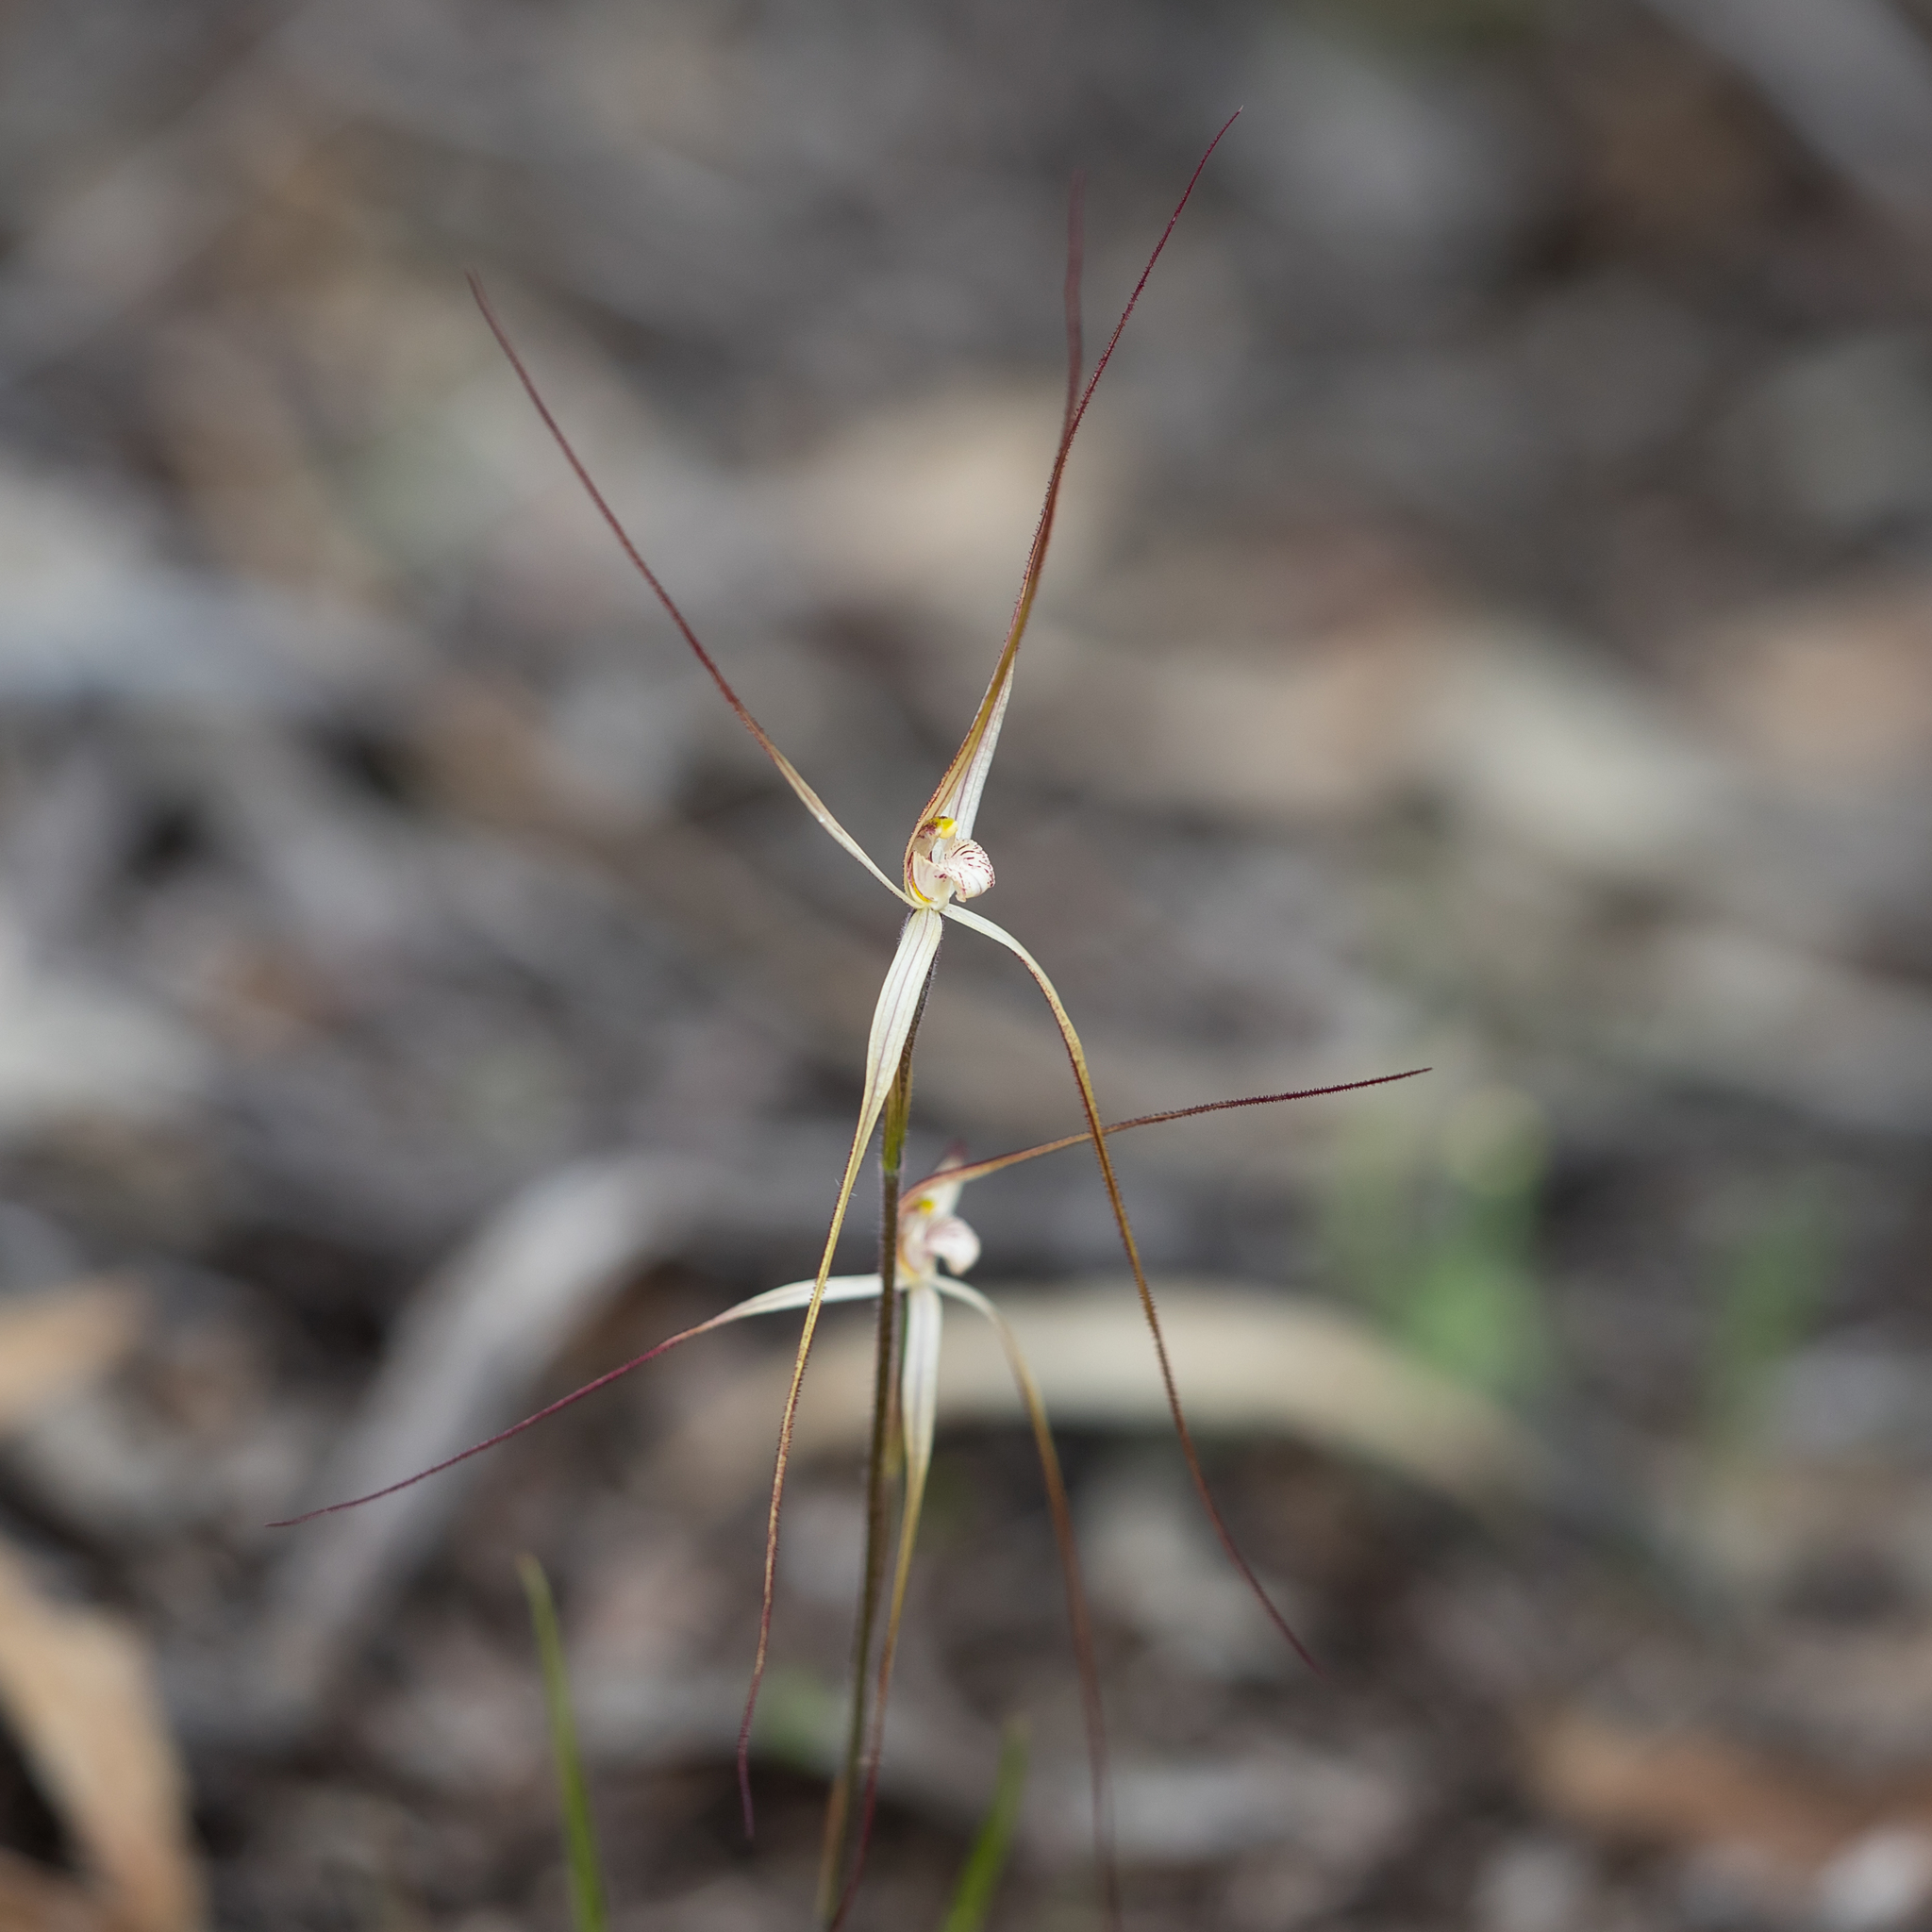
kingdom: Plantae
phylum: Tracheophyta
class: Liliopsida
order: Asparagales
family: Orchidaceae
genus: Caladenia
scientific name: Caladenia capillata
